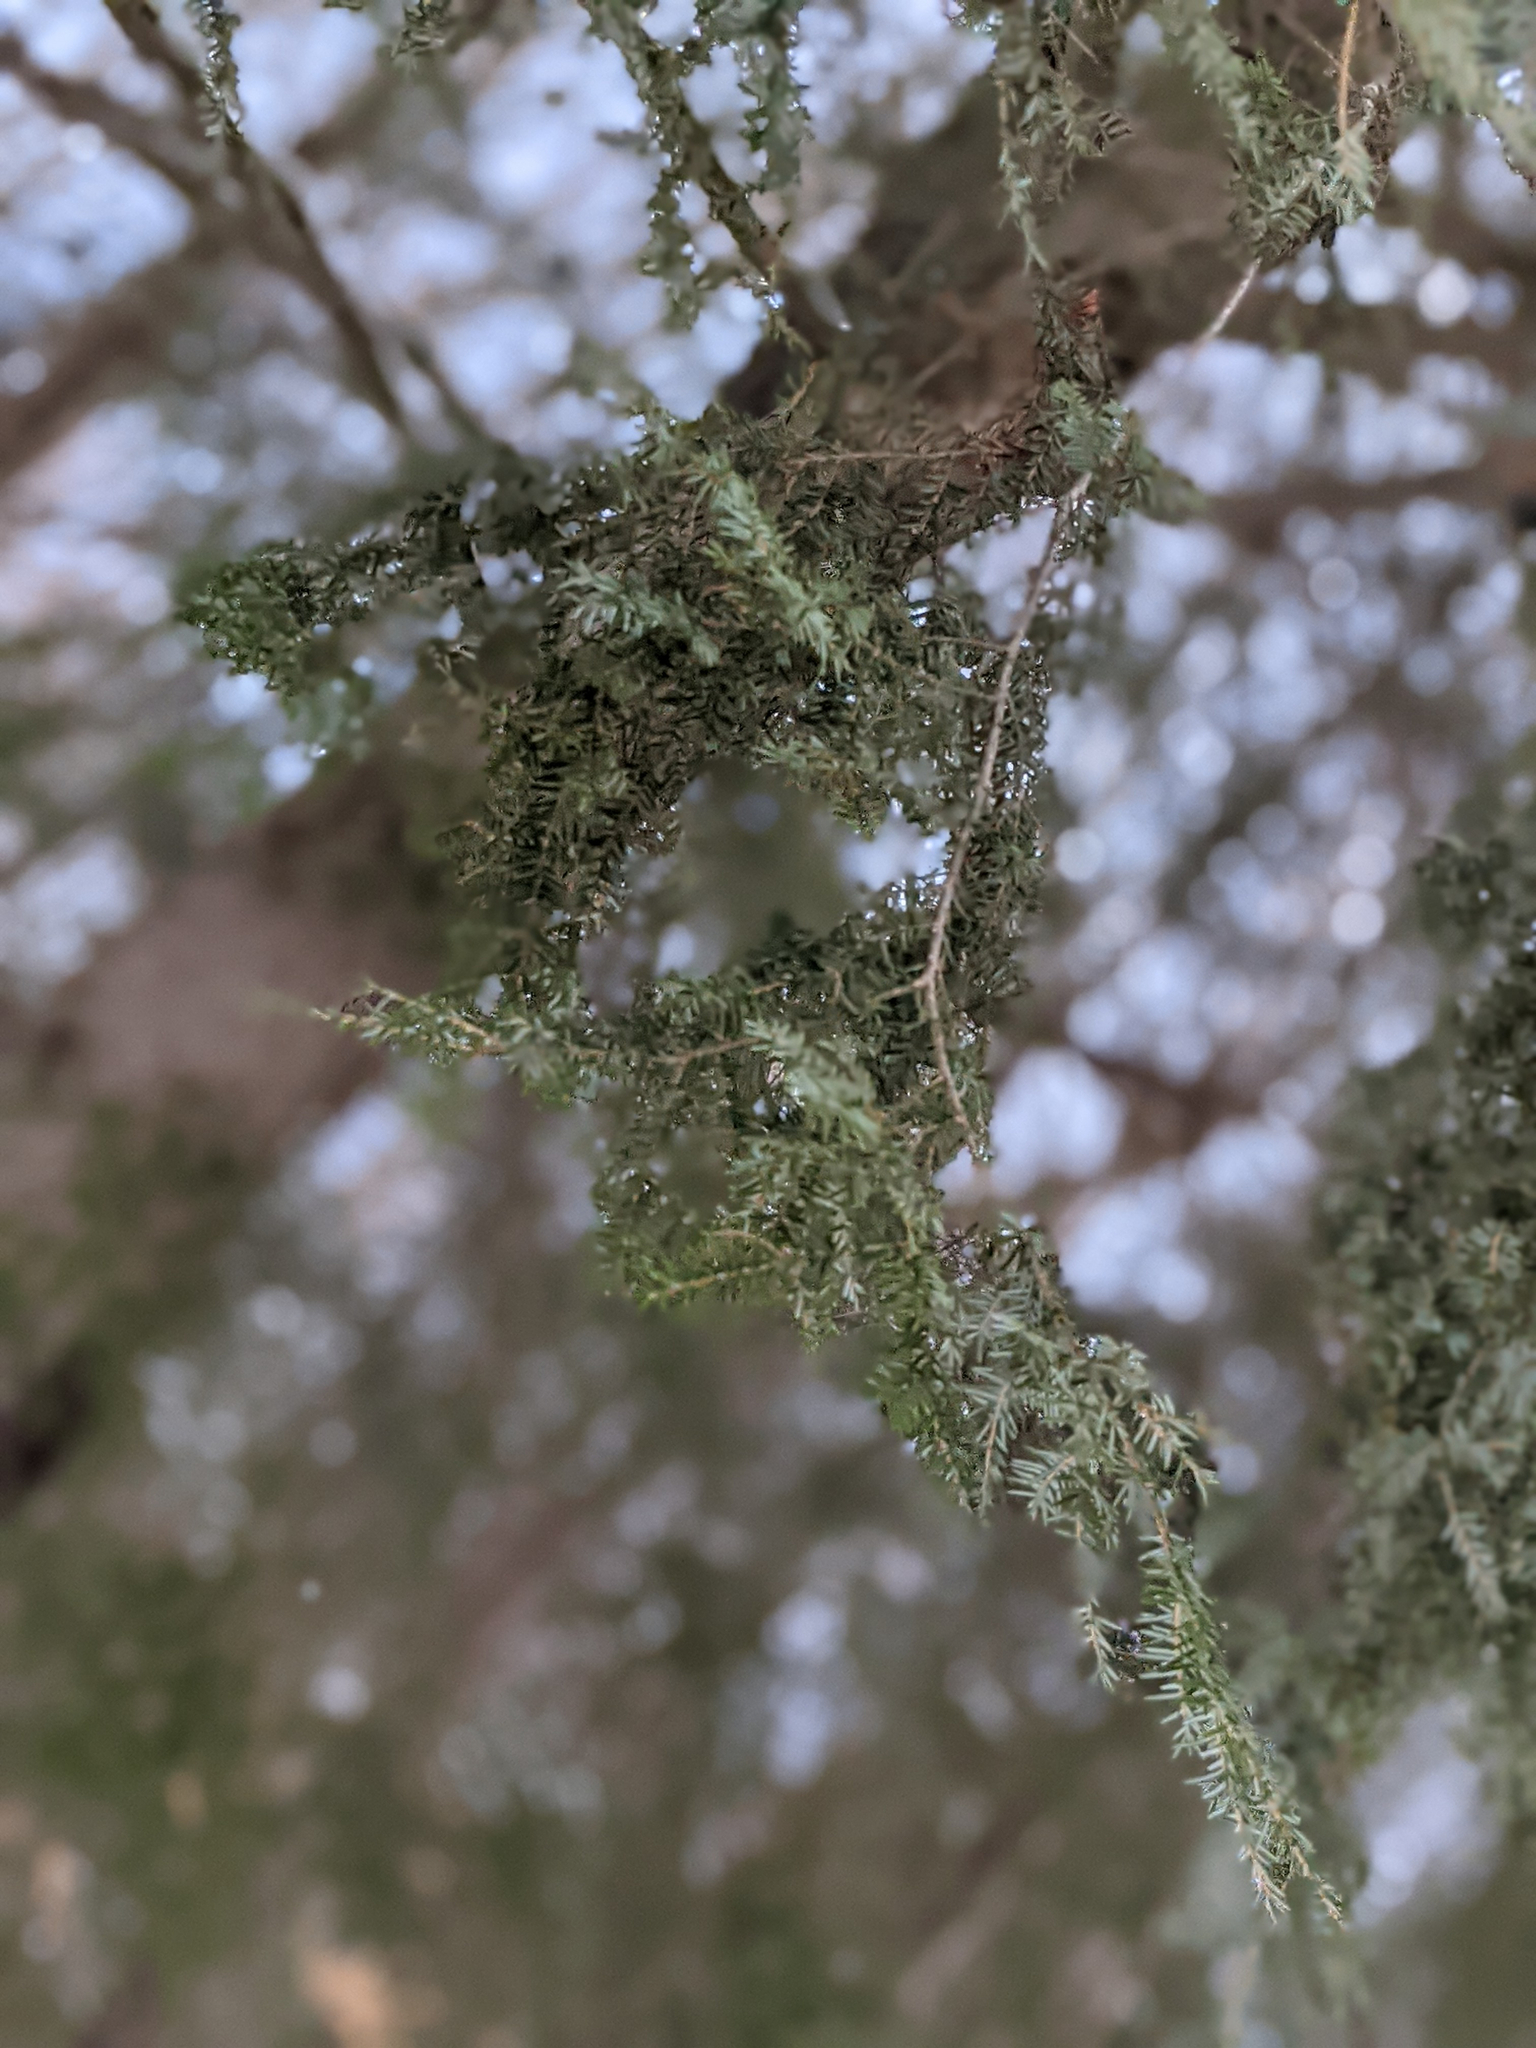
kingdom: Plantae
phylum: Tracheophyta
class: Pinopsida
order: Pinales
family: Pinaceae
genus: Tsuga
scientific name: Tsuga canadensis
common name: Eastern hemlock
